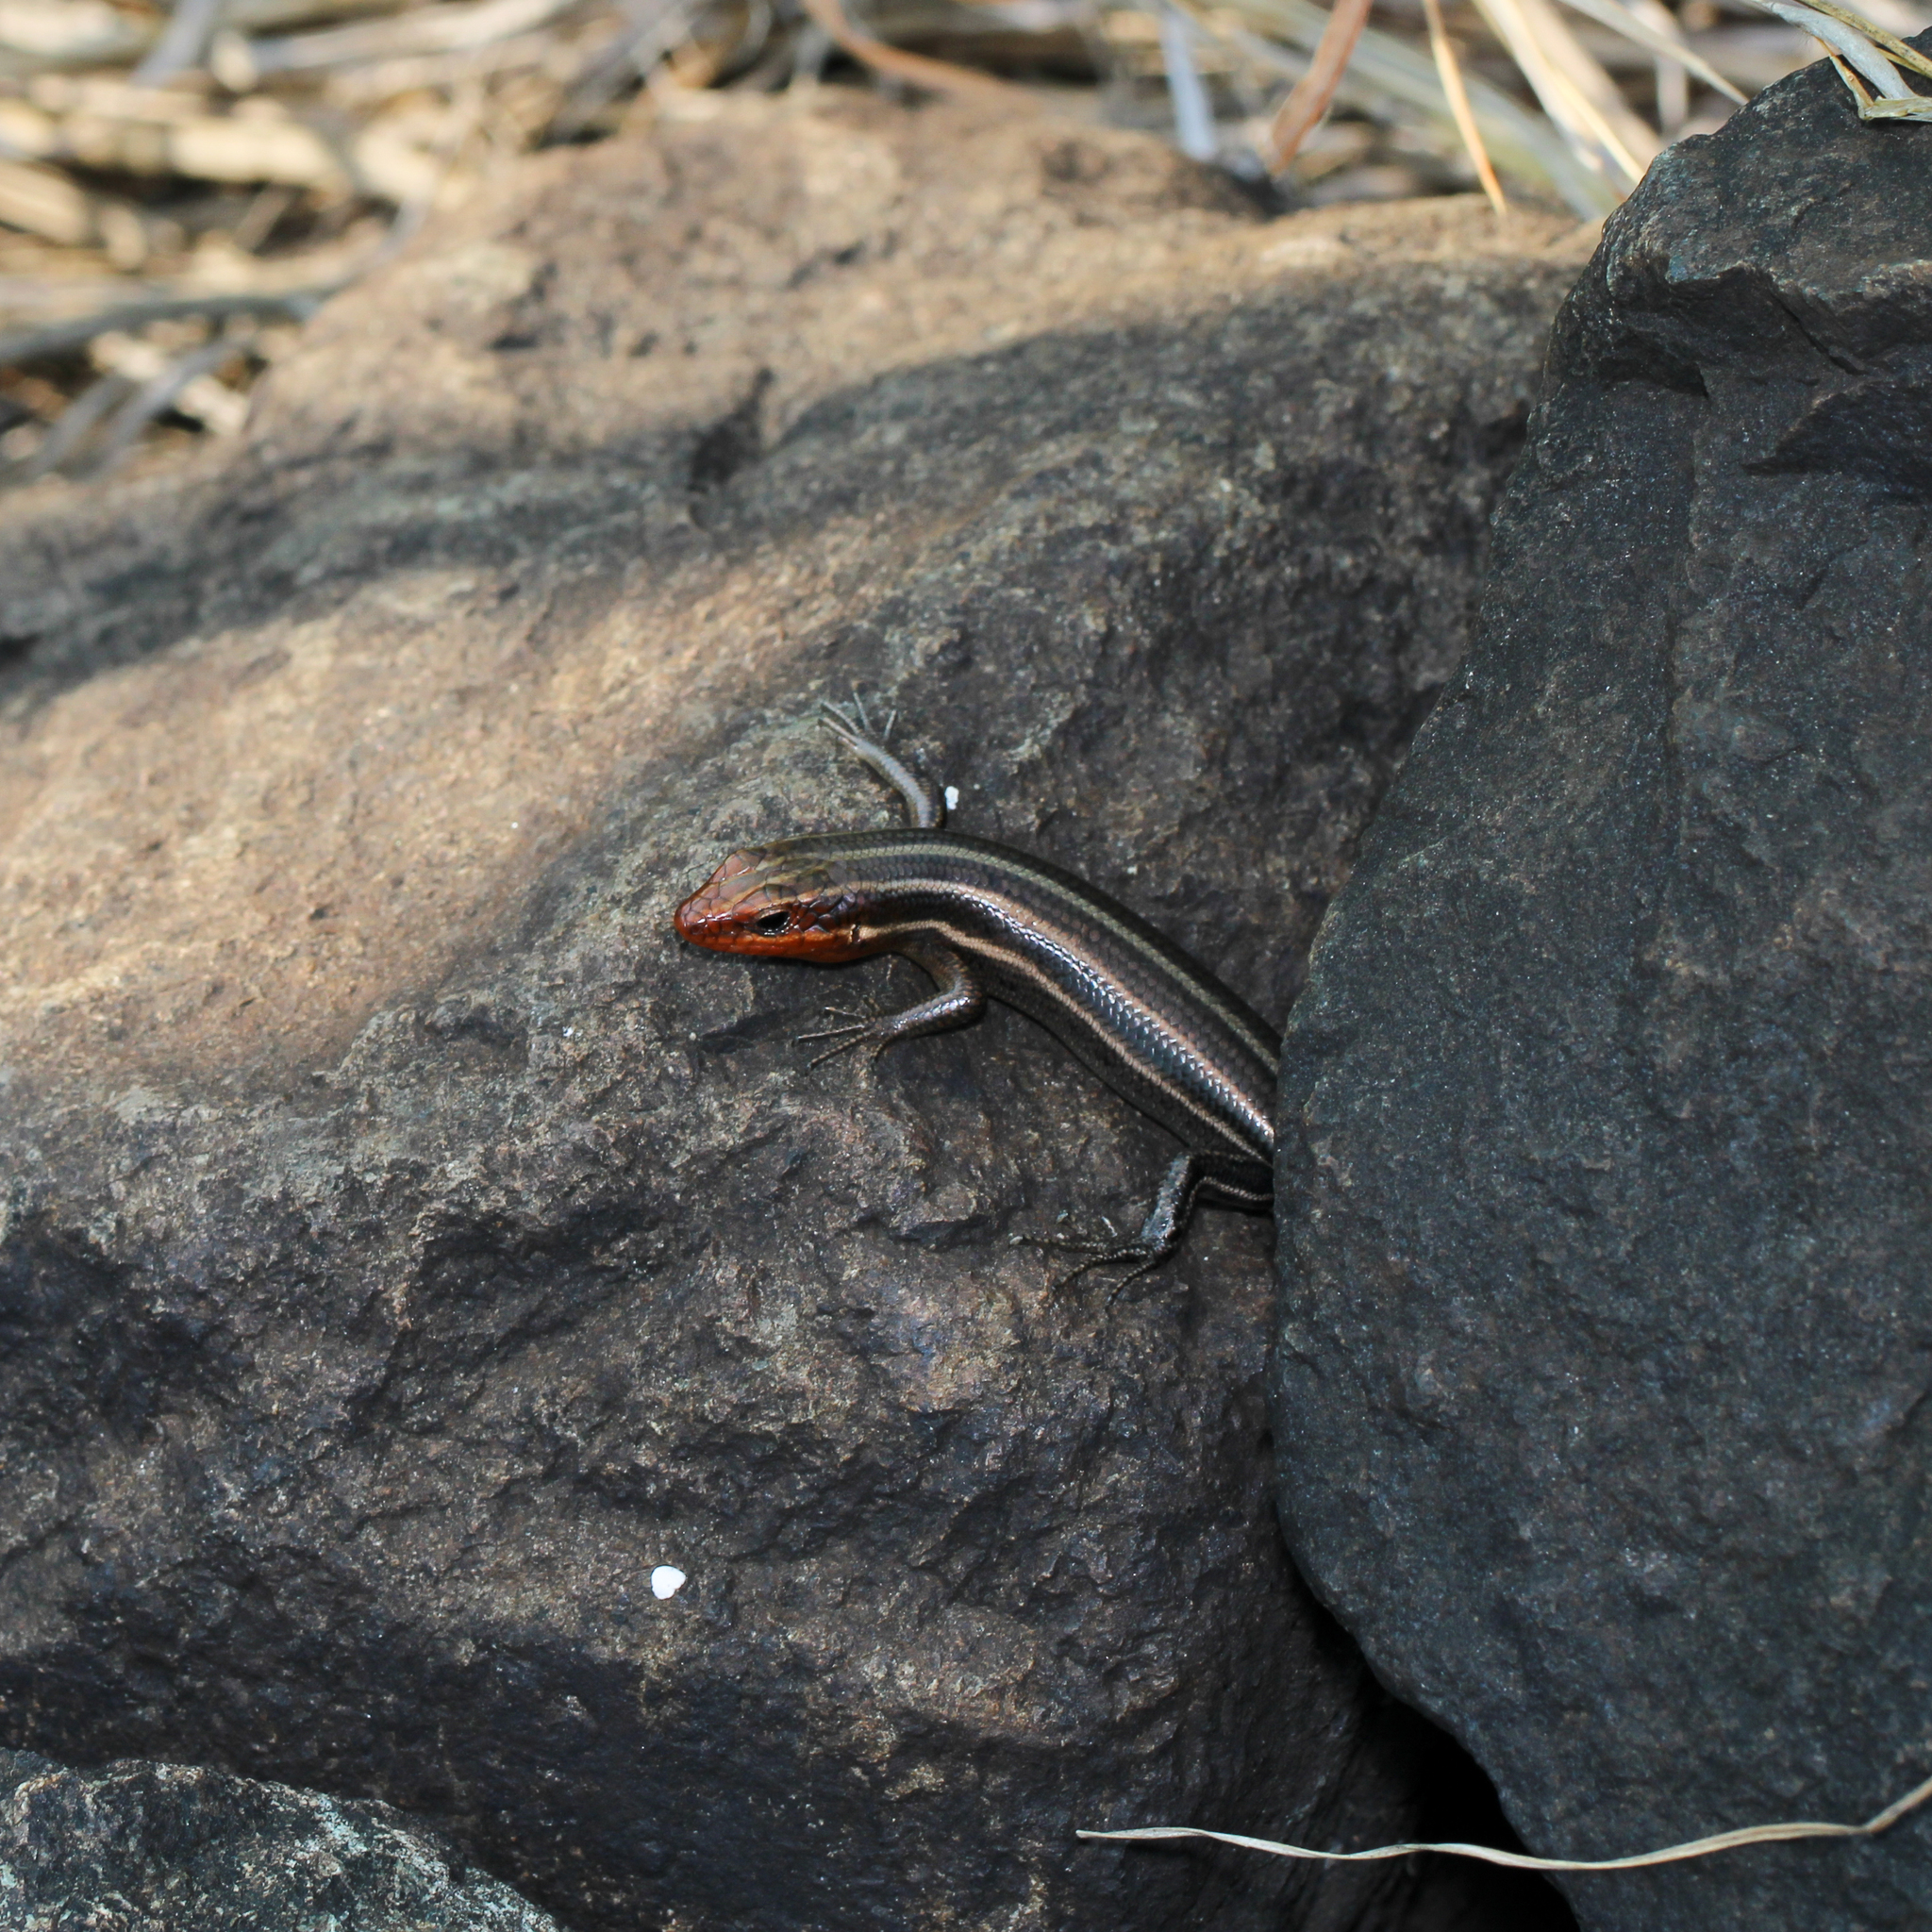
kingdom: Animalia
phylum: Chordata
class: Squamata
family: Scincidae
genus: Plestiodon
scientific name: Plestiodon fasciatus
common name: Five-lined skink
